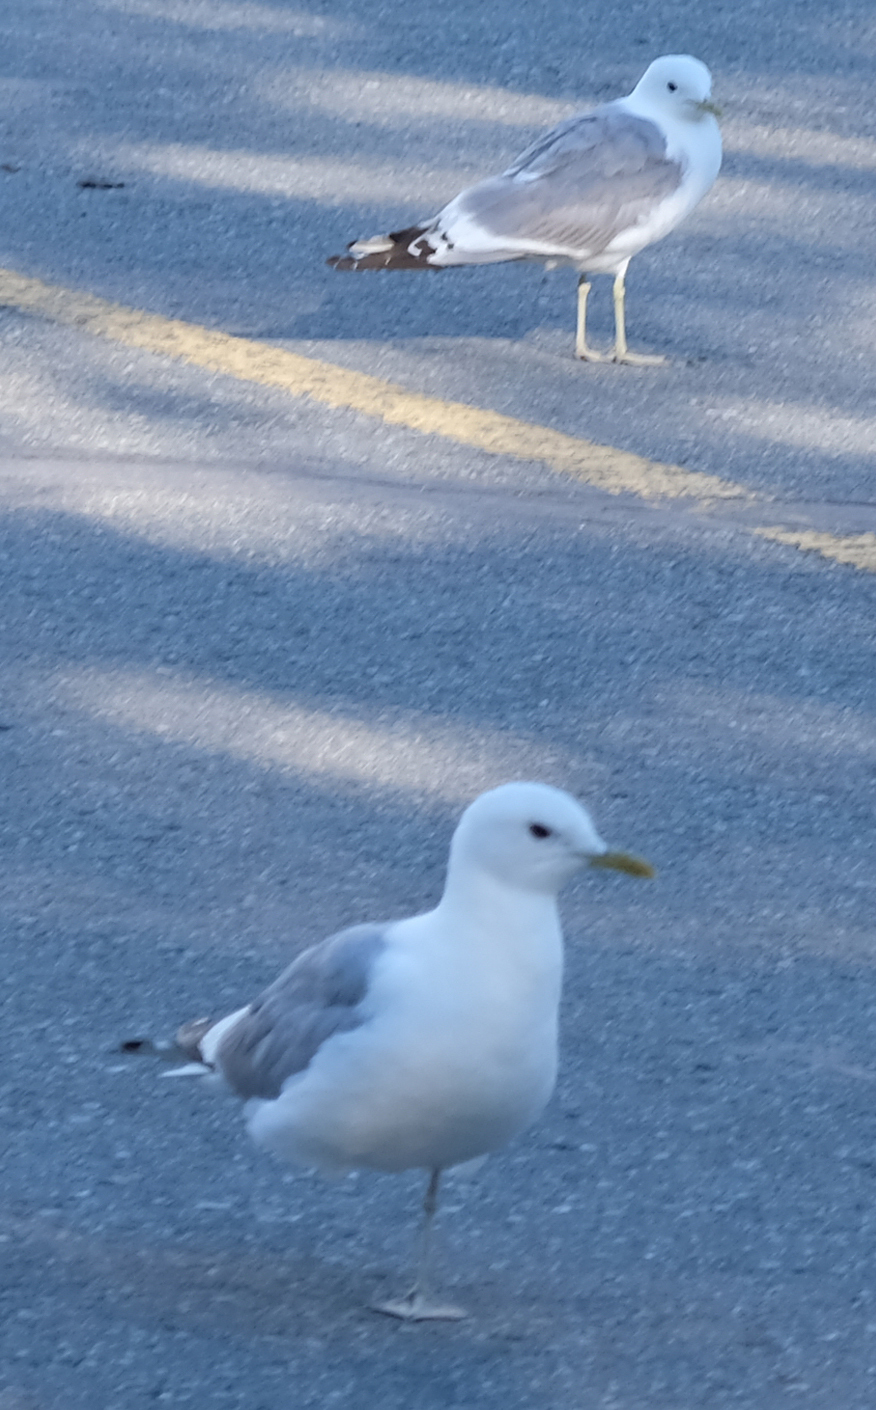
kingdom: Animalia
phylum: Chordata
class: Aves
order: Charadriiformes
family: Laridae
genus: Larus
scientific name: Larus brachyrhynchus
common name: Short-billed gull
